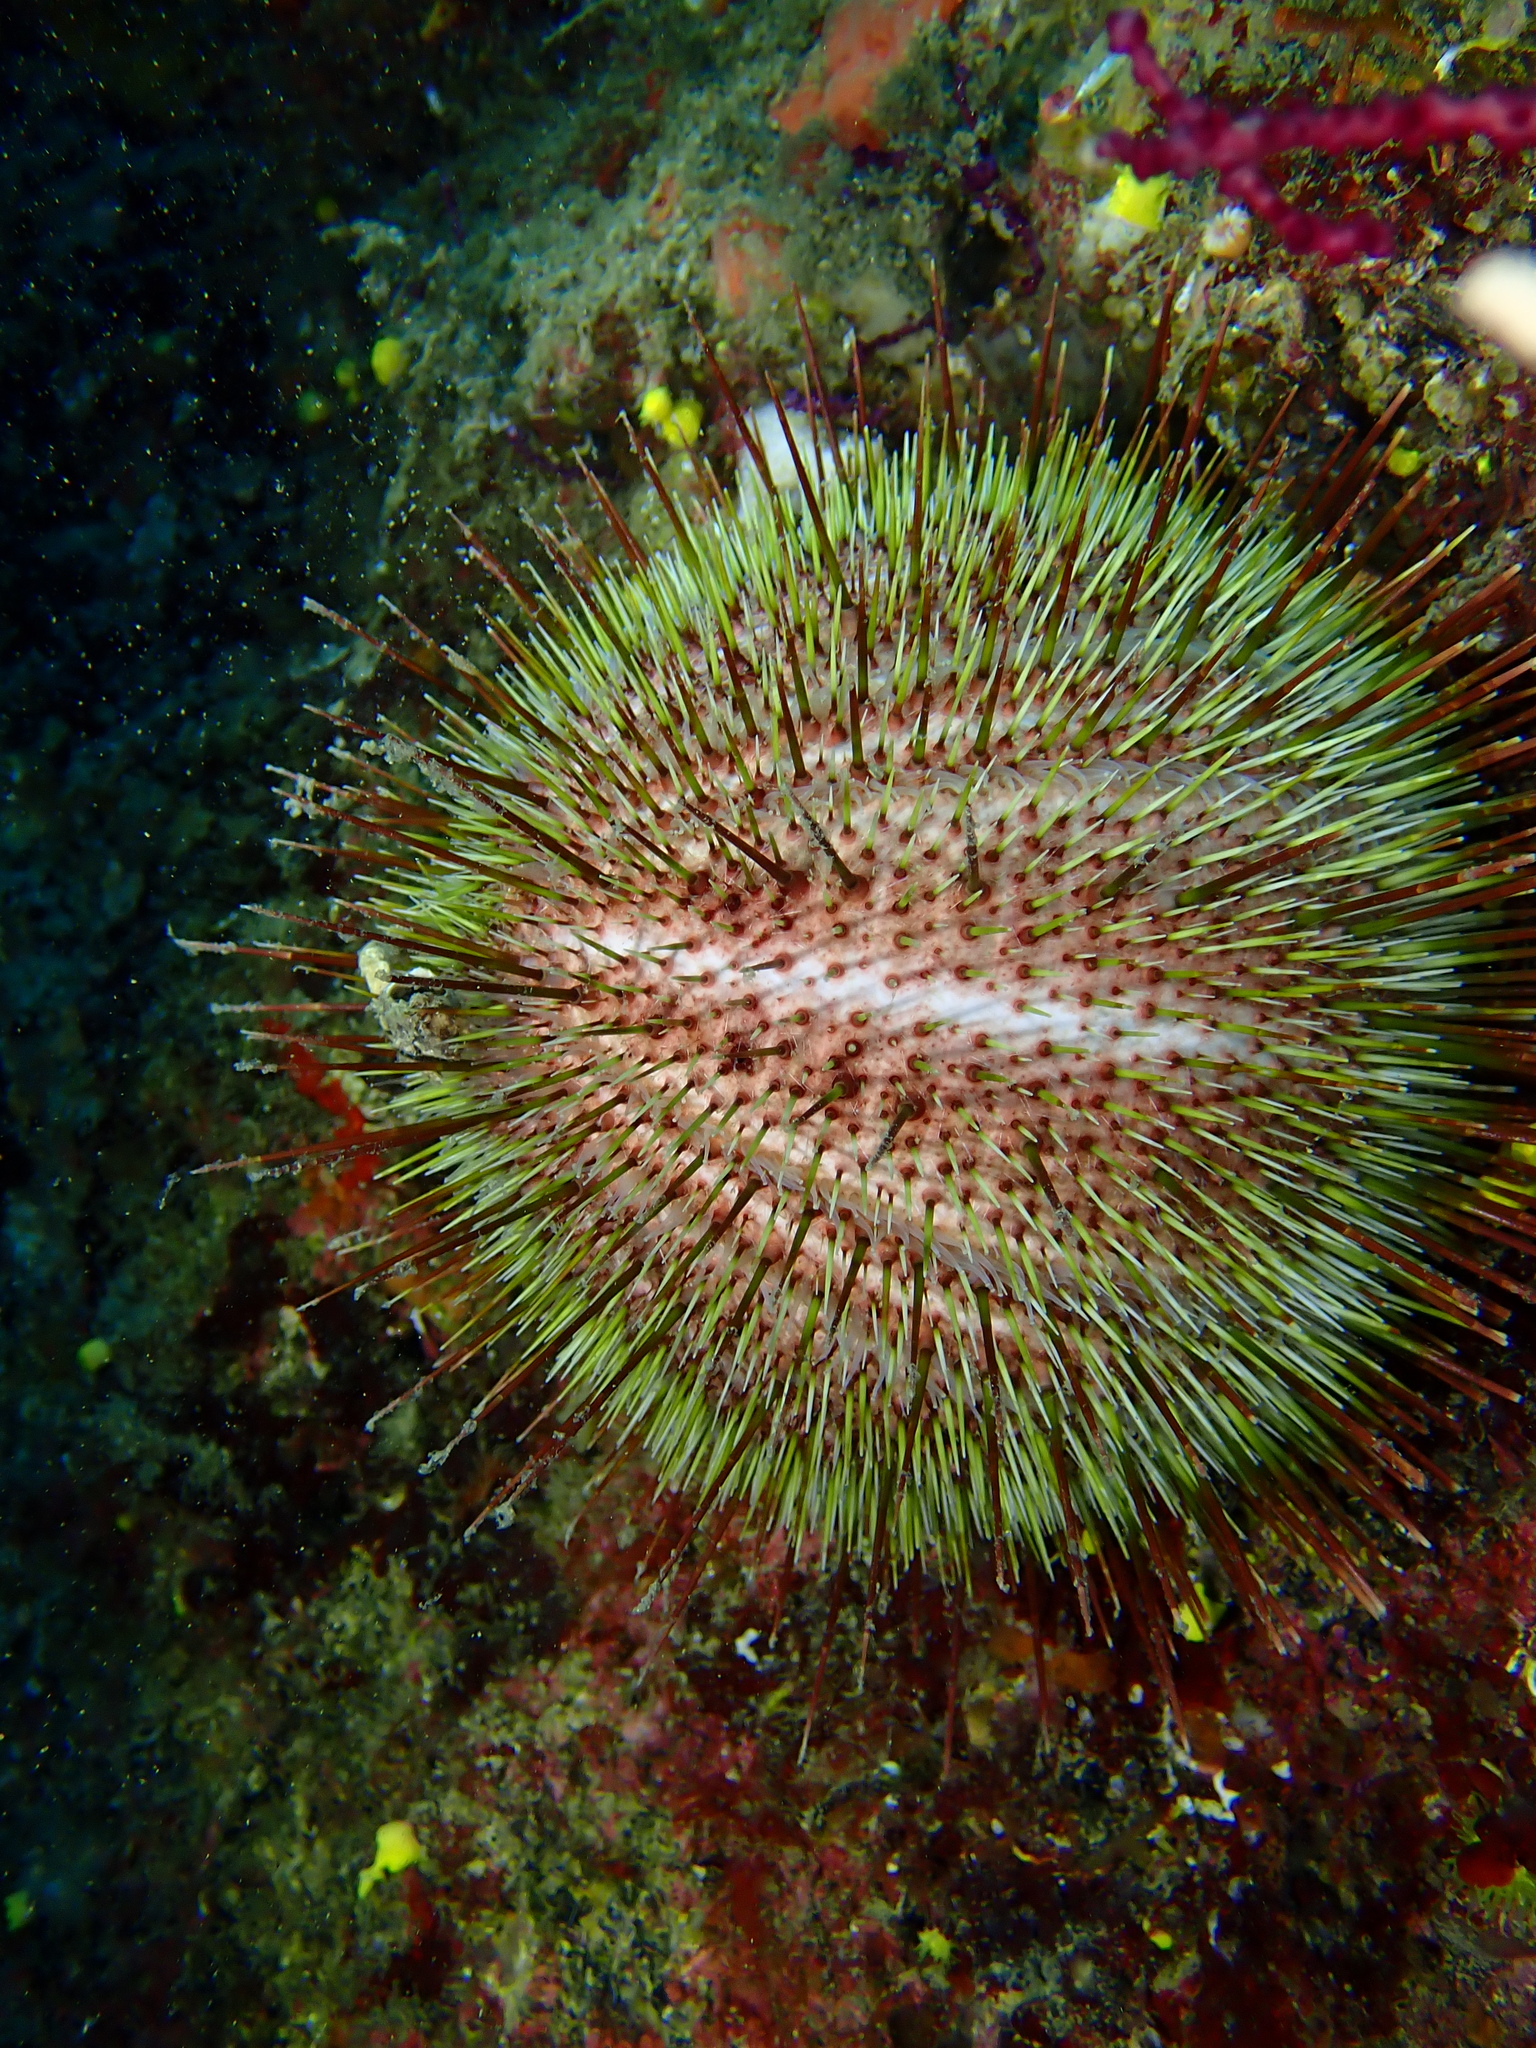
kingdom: Animalia
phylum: Echinodermata
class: Echinoidea
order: Camarodonta
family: Echinidae
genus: Echinus
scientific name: Echinus melo
